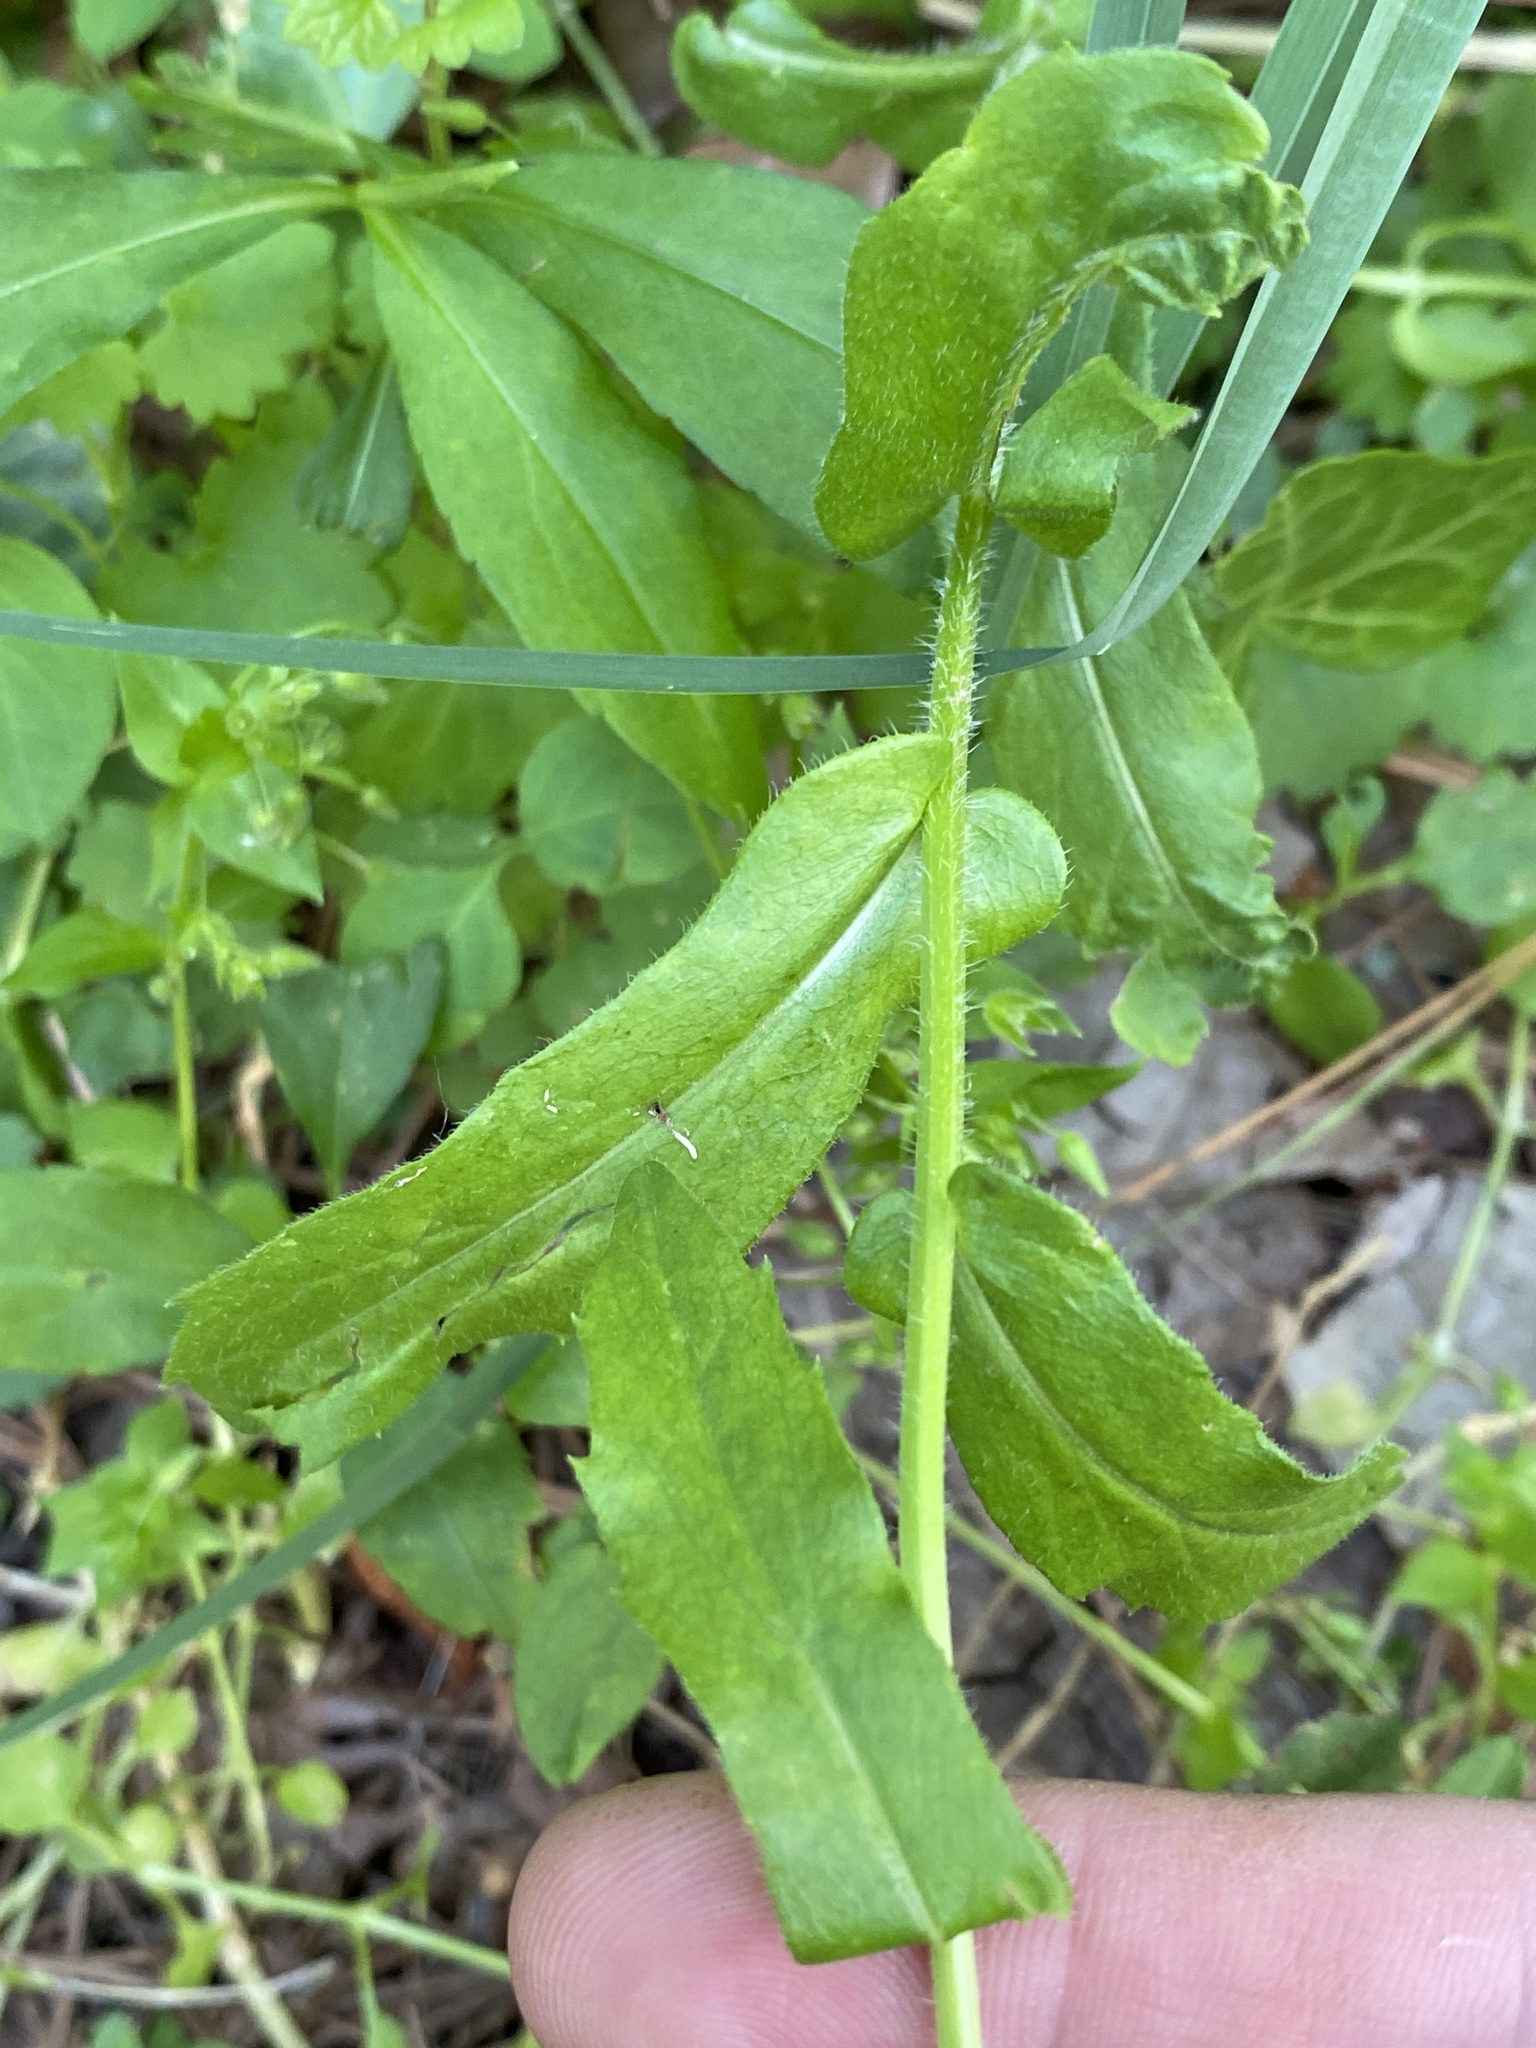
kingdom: Plantae
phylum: Tracheophyta
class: Magnoliopsida
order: Asterales
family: Asteraceae
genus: Erigeron
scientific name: Erigeron philadelphicus
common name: Robin's-plantain
